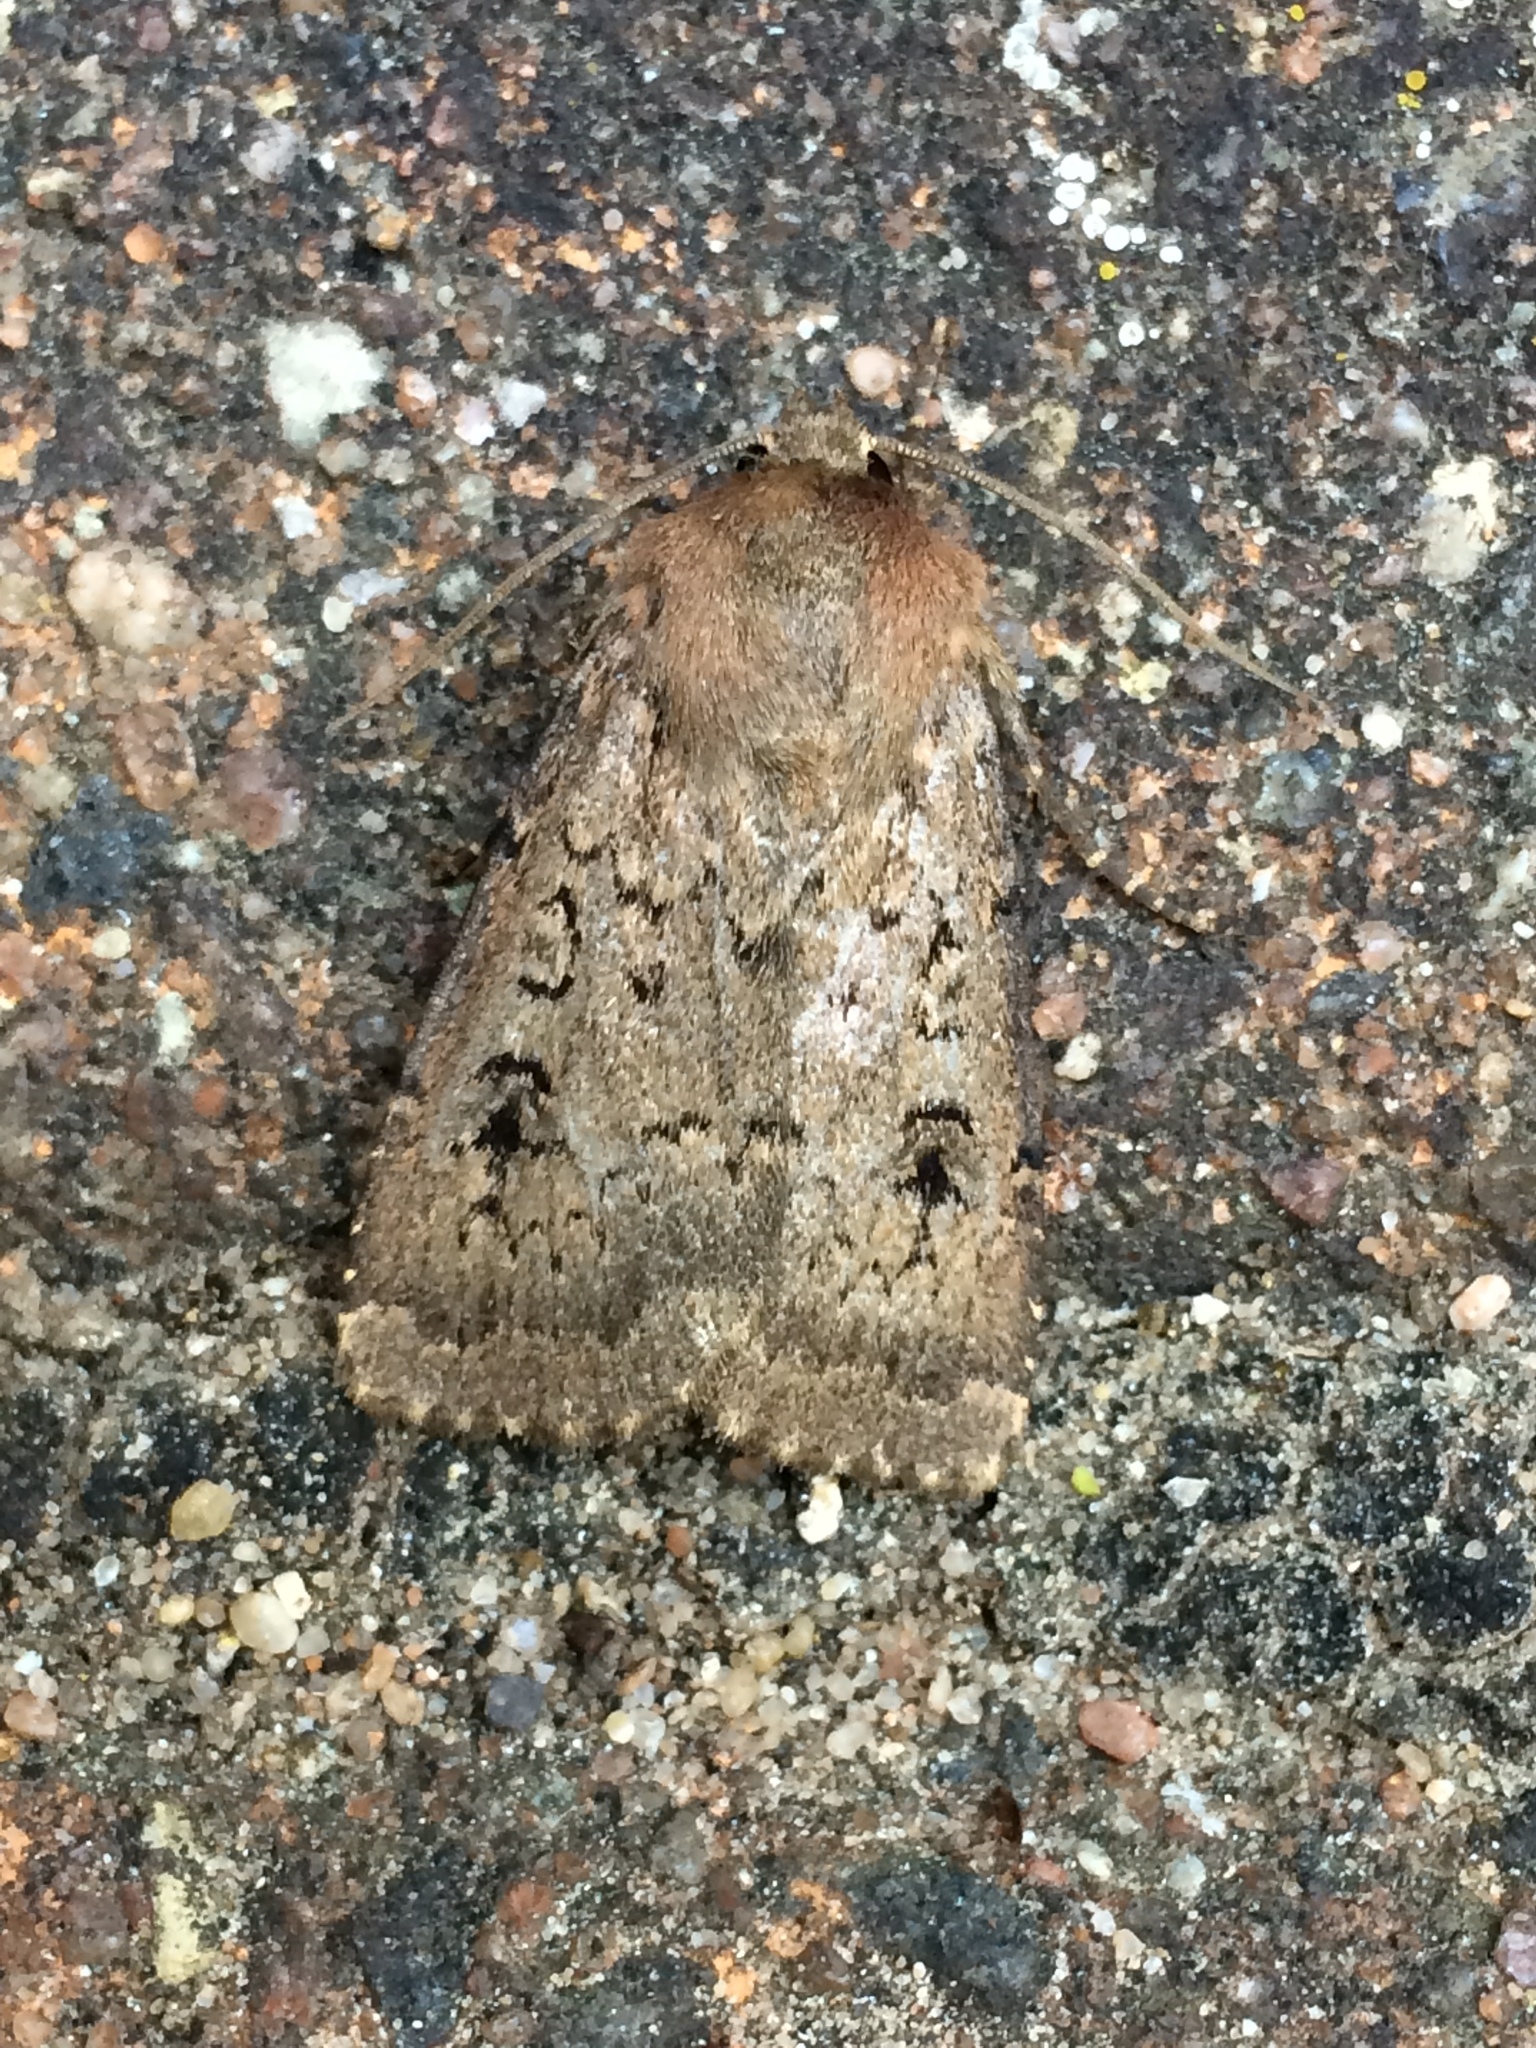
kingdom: Animalia
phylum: Arthropoda
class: Insecta
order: Lepidoptera
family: Noctuidae
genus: Graphiphora
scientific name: Graphiphora augur
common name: Double dart
